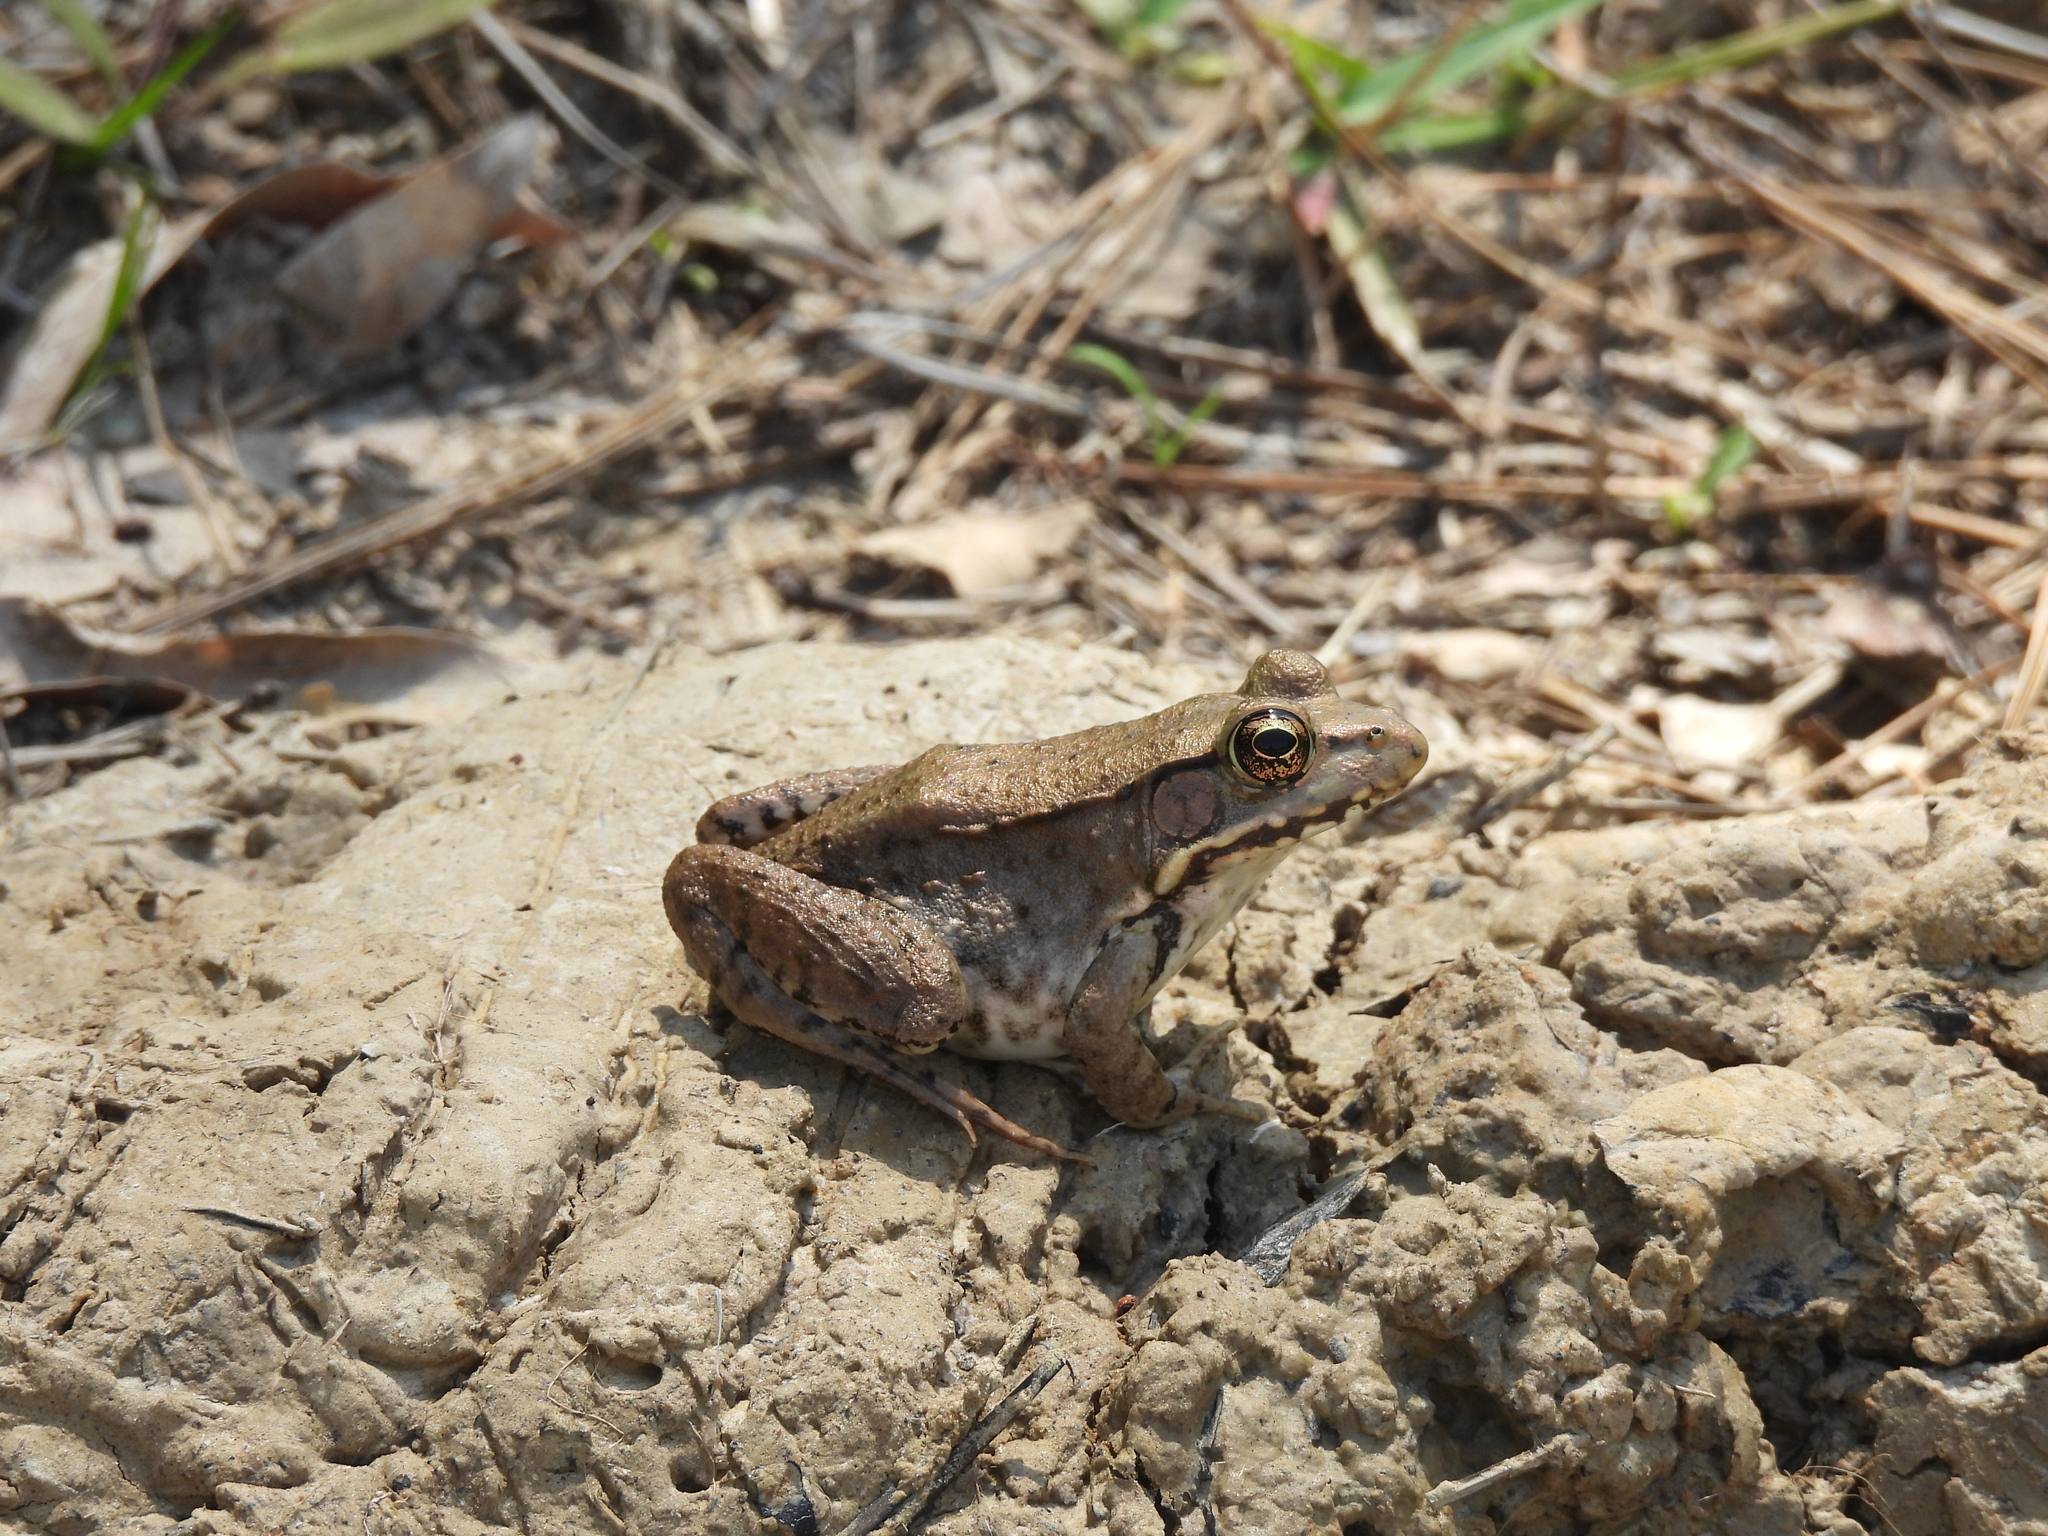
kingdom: Animalia
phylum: Chordata
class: Amphibia
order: Anura
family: Ranidae
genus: Lithobates
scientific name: Lithobates clamitans
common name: Green frog
